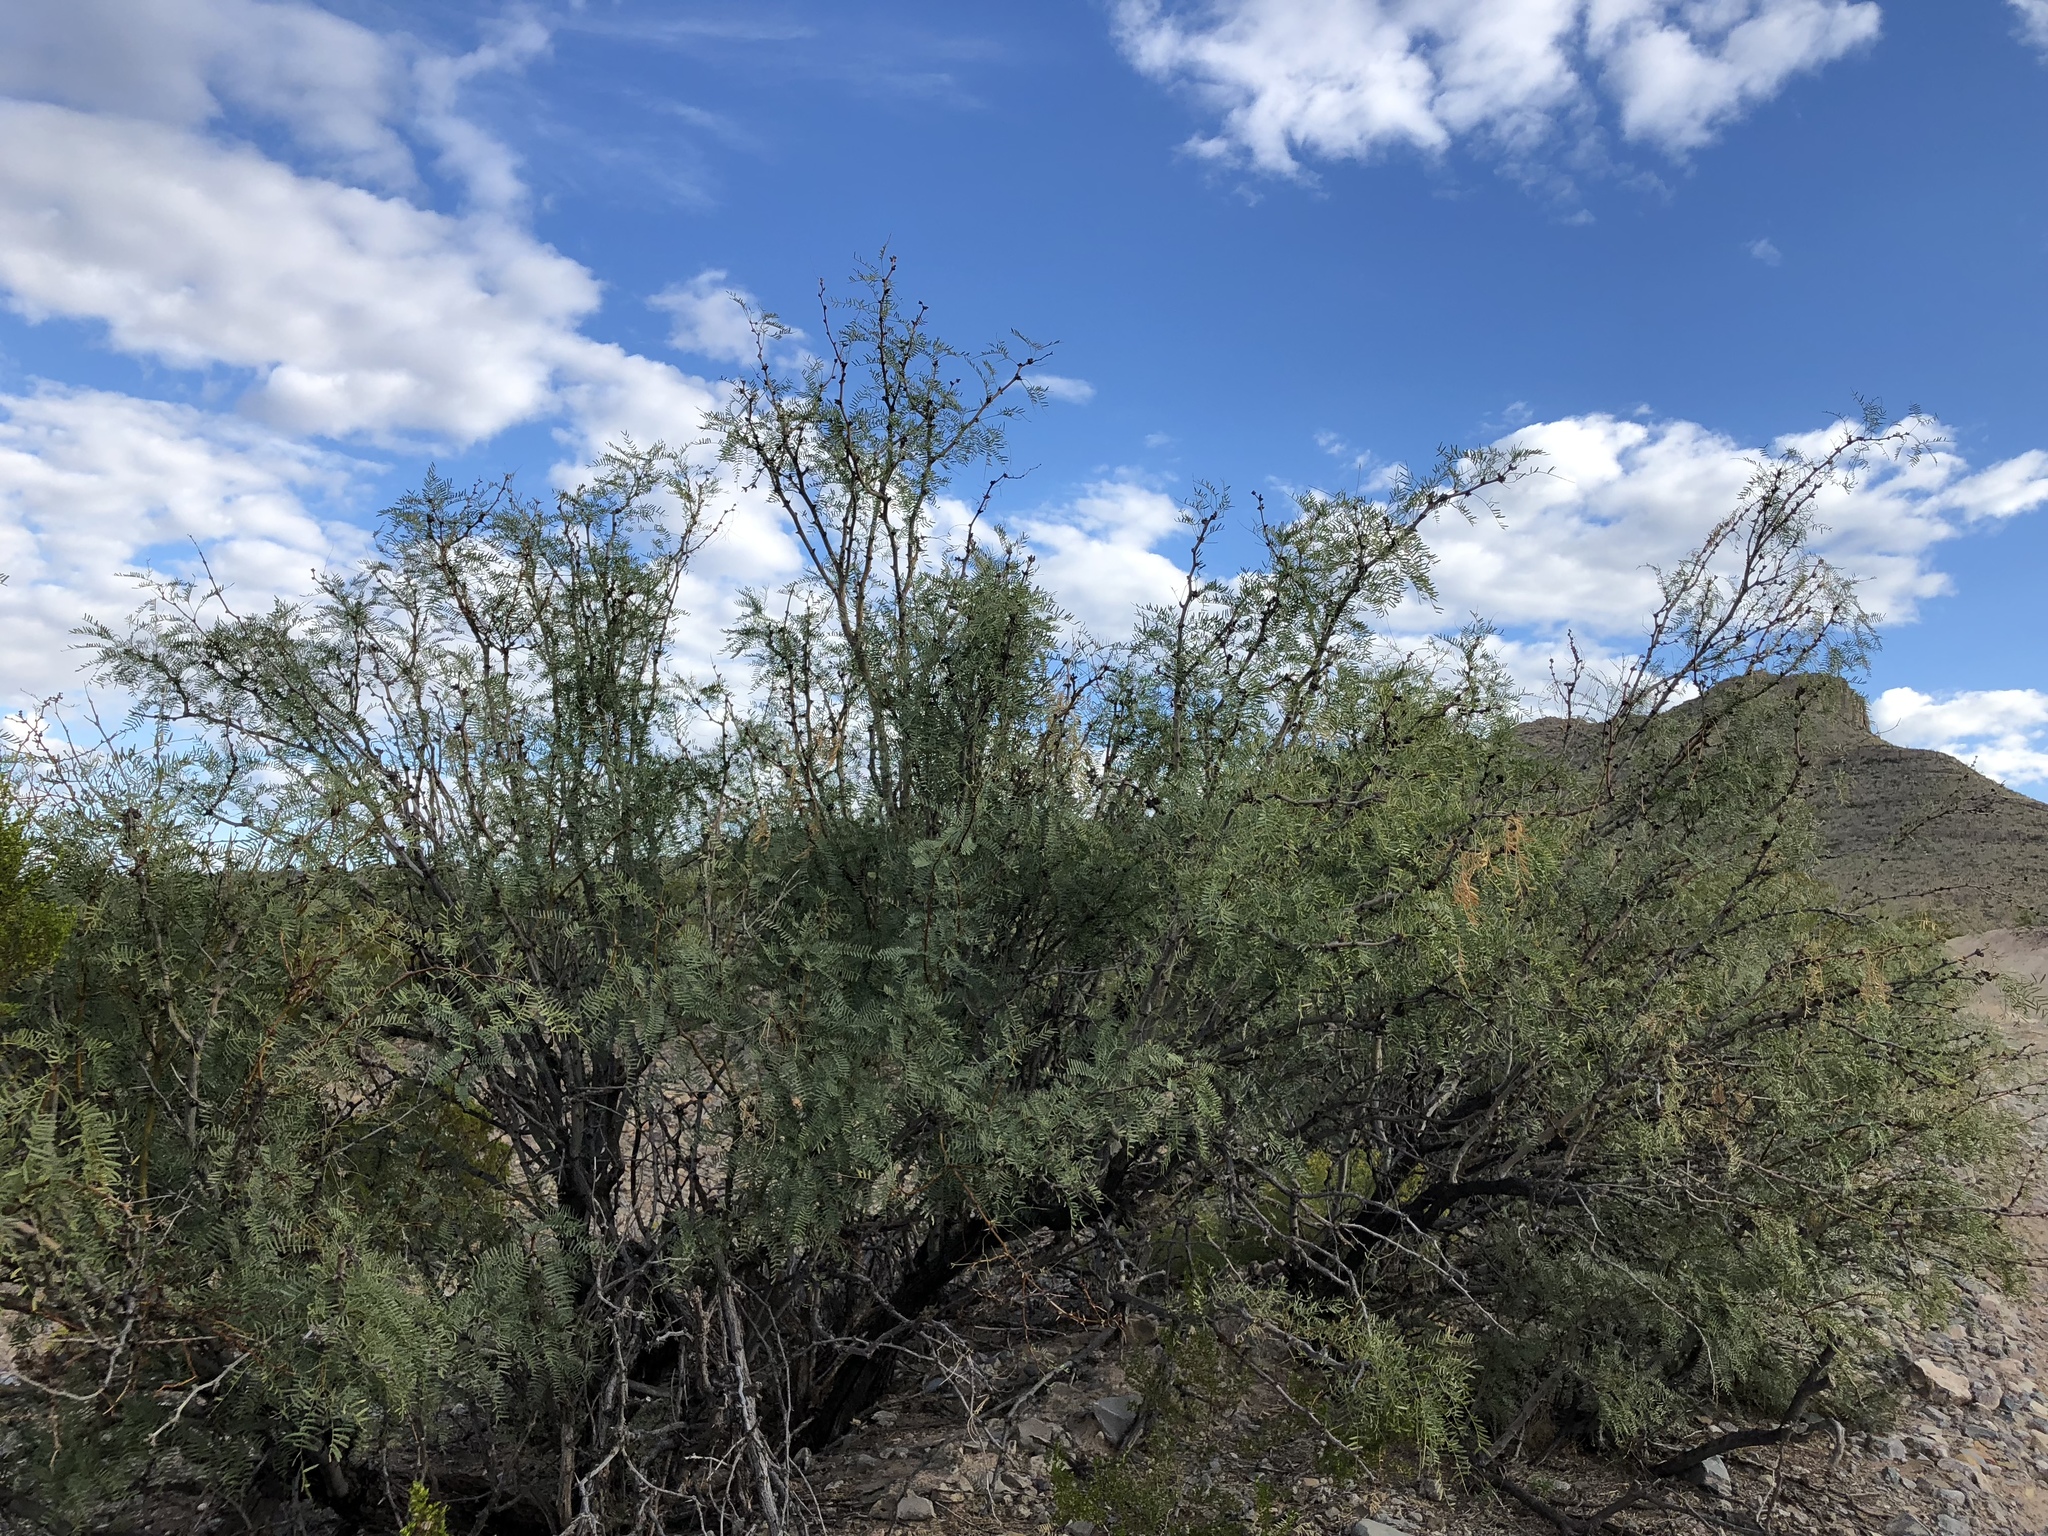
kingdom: Plantae
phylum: Tracheophyta
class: Magnoliopsida
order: Fabales
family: Fabaceae
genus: Prosopis
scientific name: Prosopis glandulosa
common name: Honey mesquite
